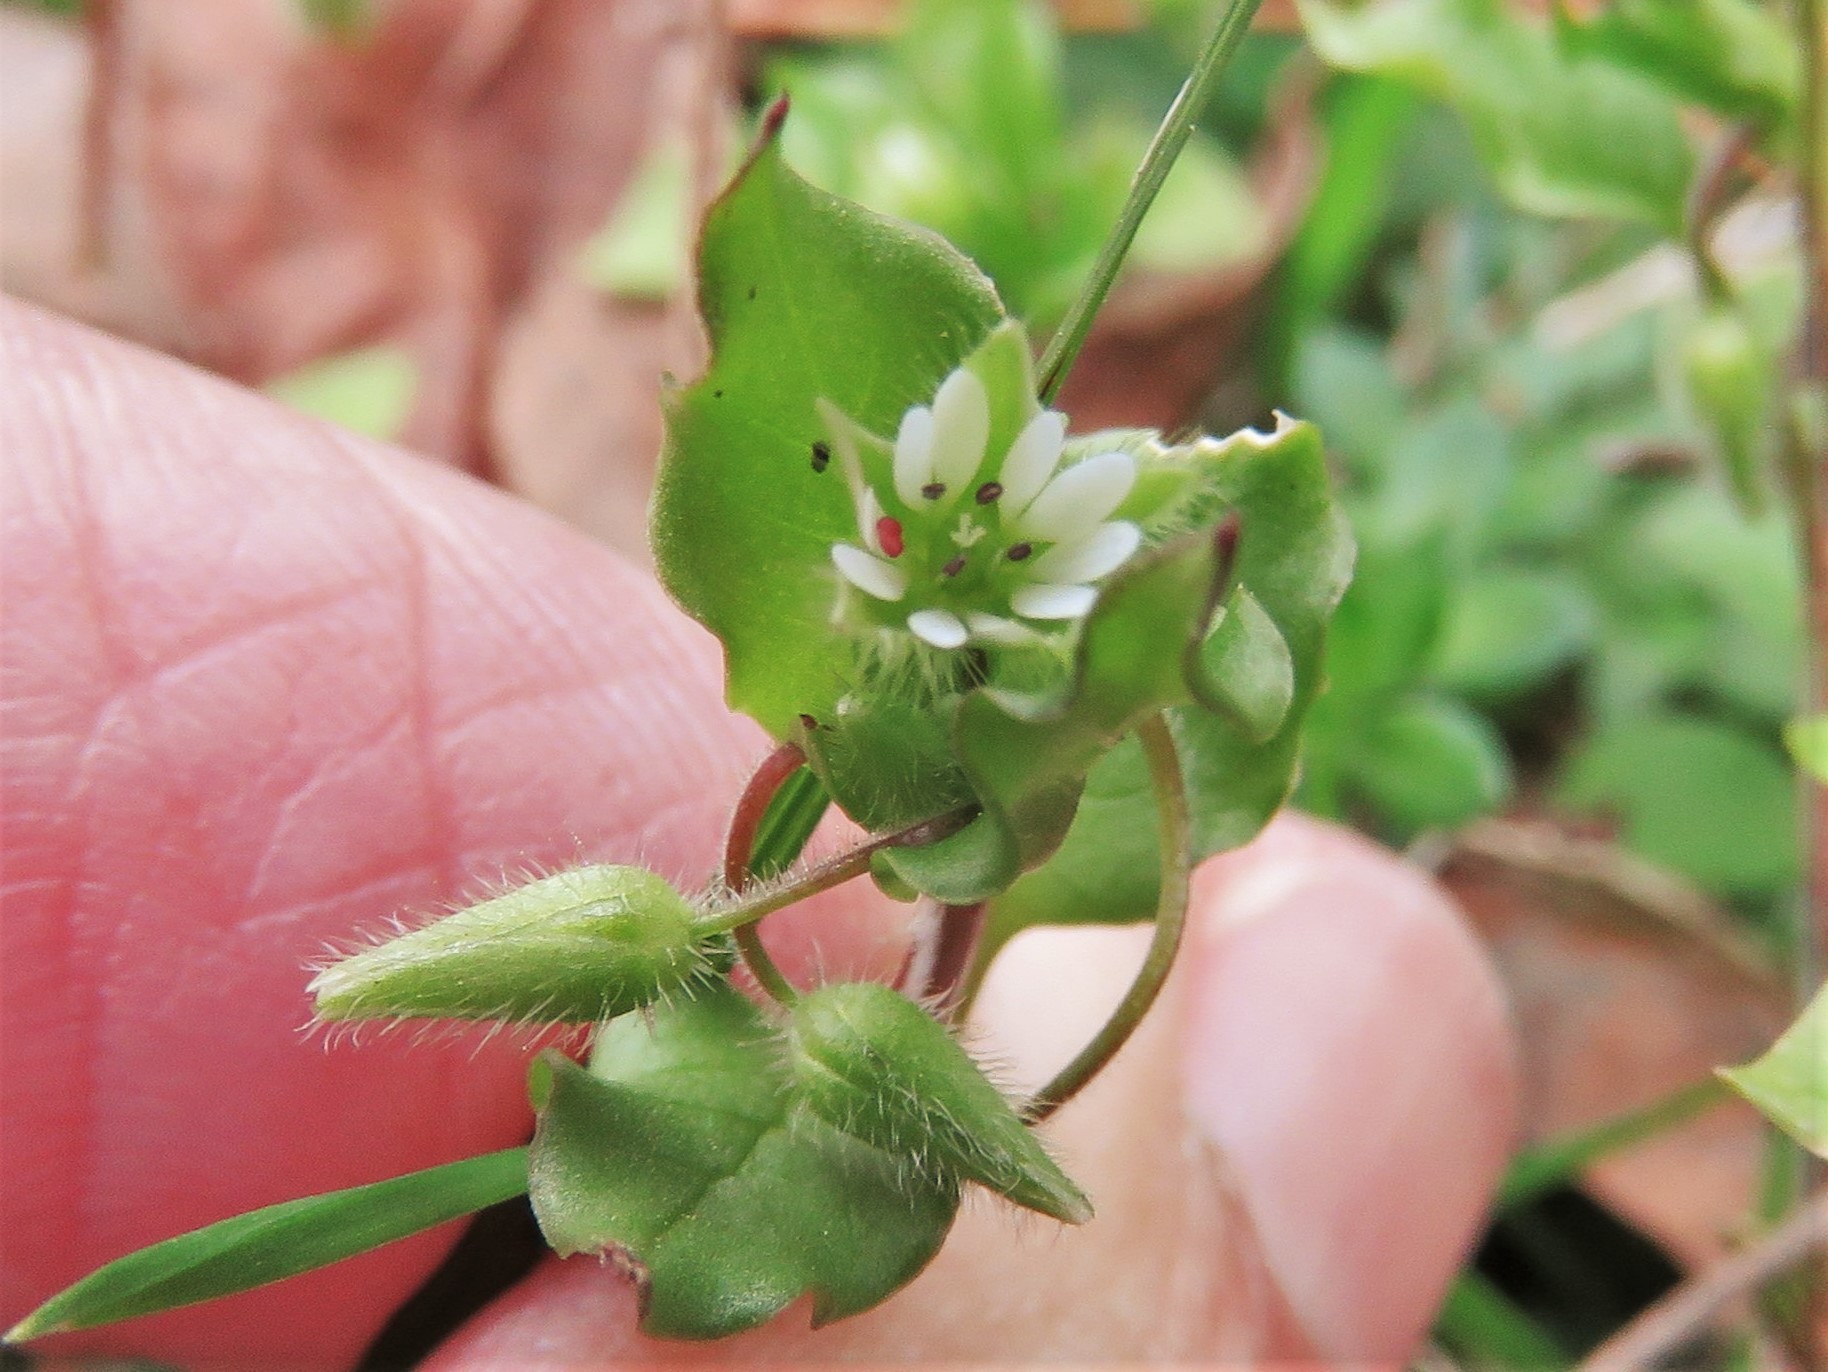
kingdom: Plantae
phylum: Tracheophyta
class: Magnoliopsida
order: Caryophyllales
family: Caryophyllaceae
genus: Stellaria
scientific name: Stellaria media
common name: Common chickweed
